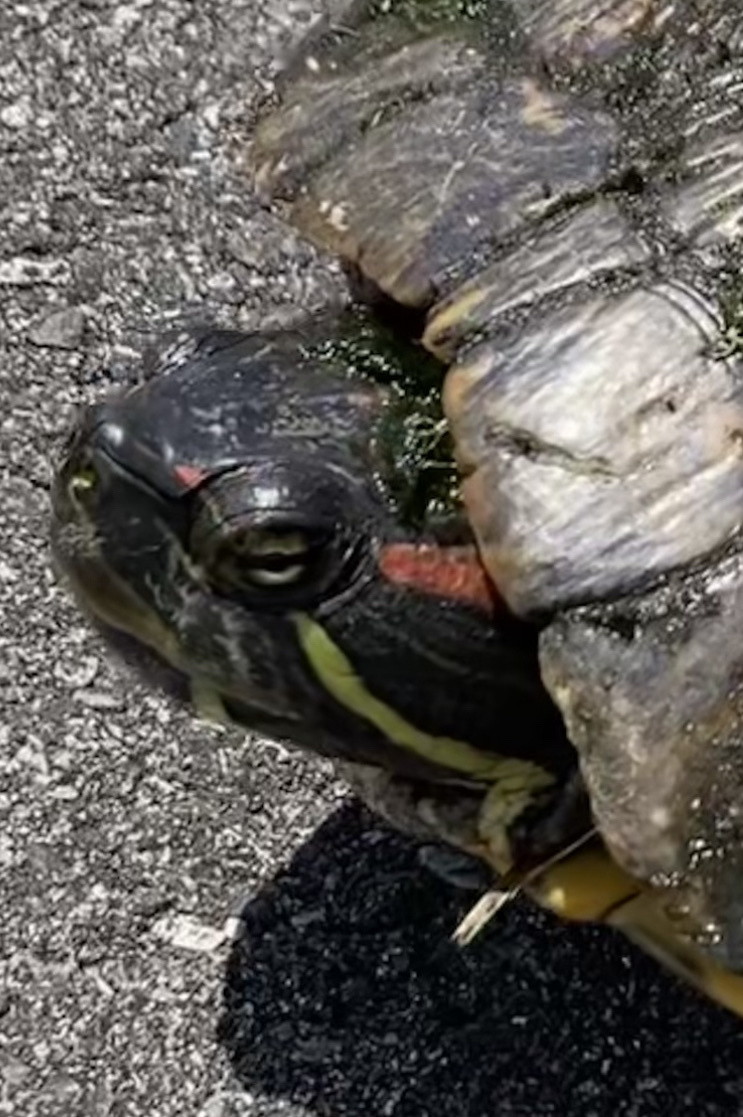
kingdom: Animalia
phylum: Chordata
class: Testudines
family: Emydidae
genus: Trachemys
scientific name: Trachemys scripta
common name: Slider
